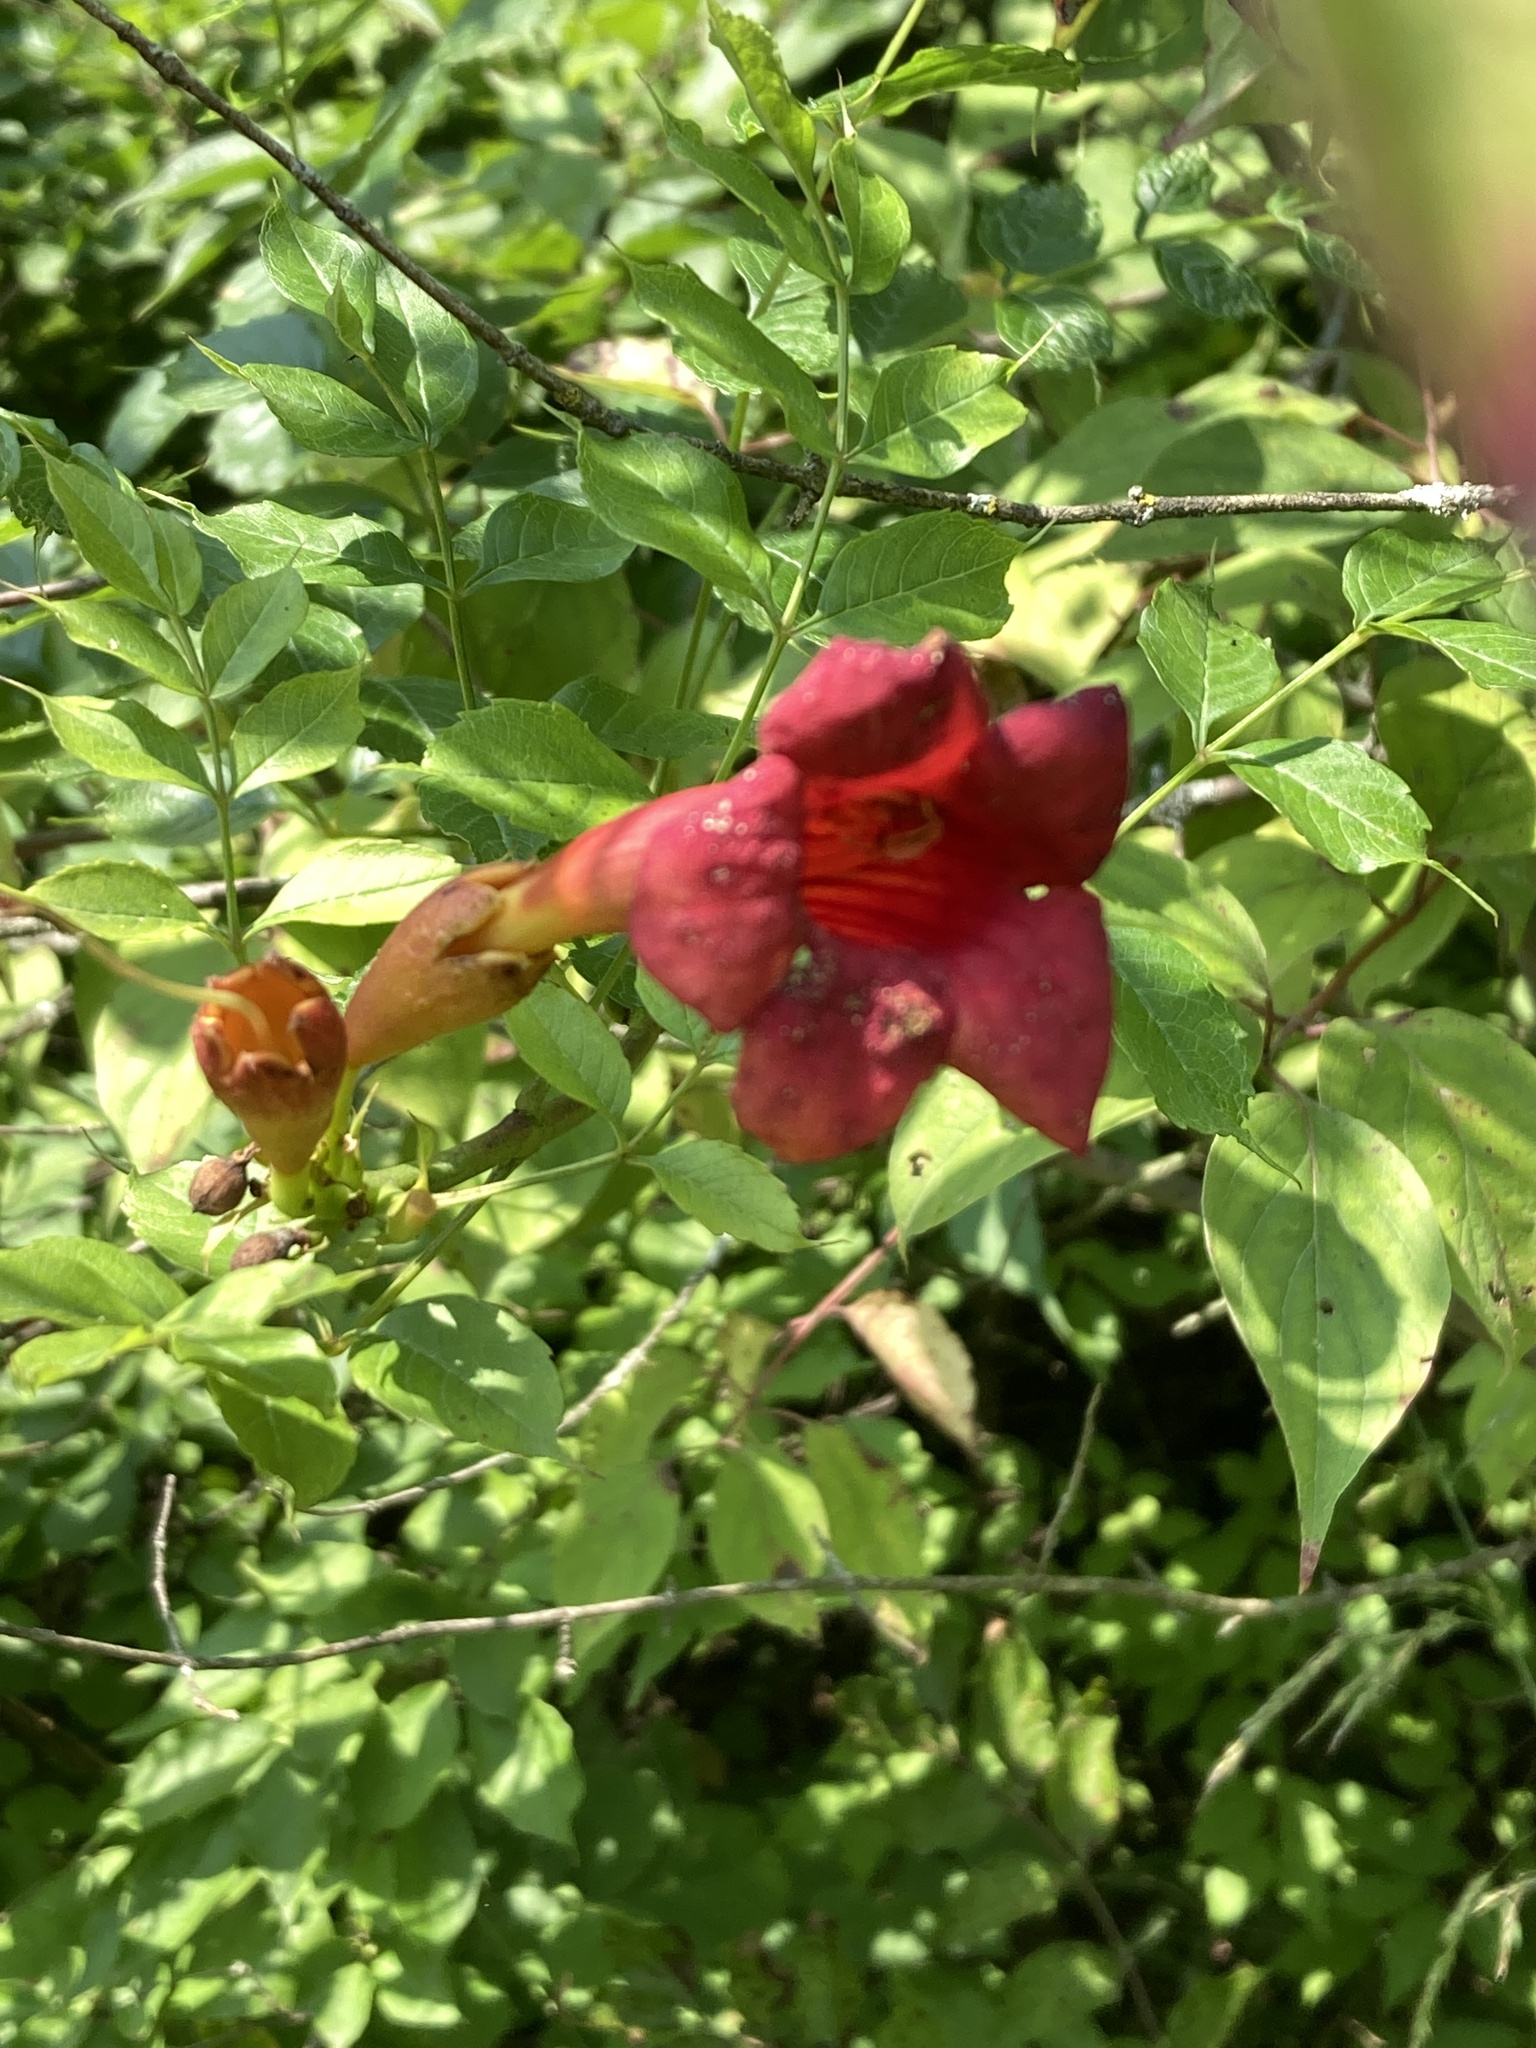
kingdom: Plantae
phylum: Tracheophyta
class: Magnoliopsida
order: Lamiales
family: Bignoniaceae
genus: Campsis
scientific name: Campsis radicans
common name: Trumpet-creeper
